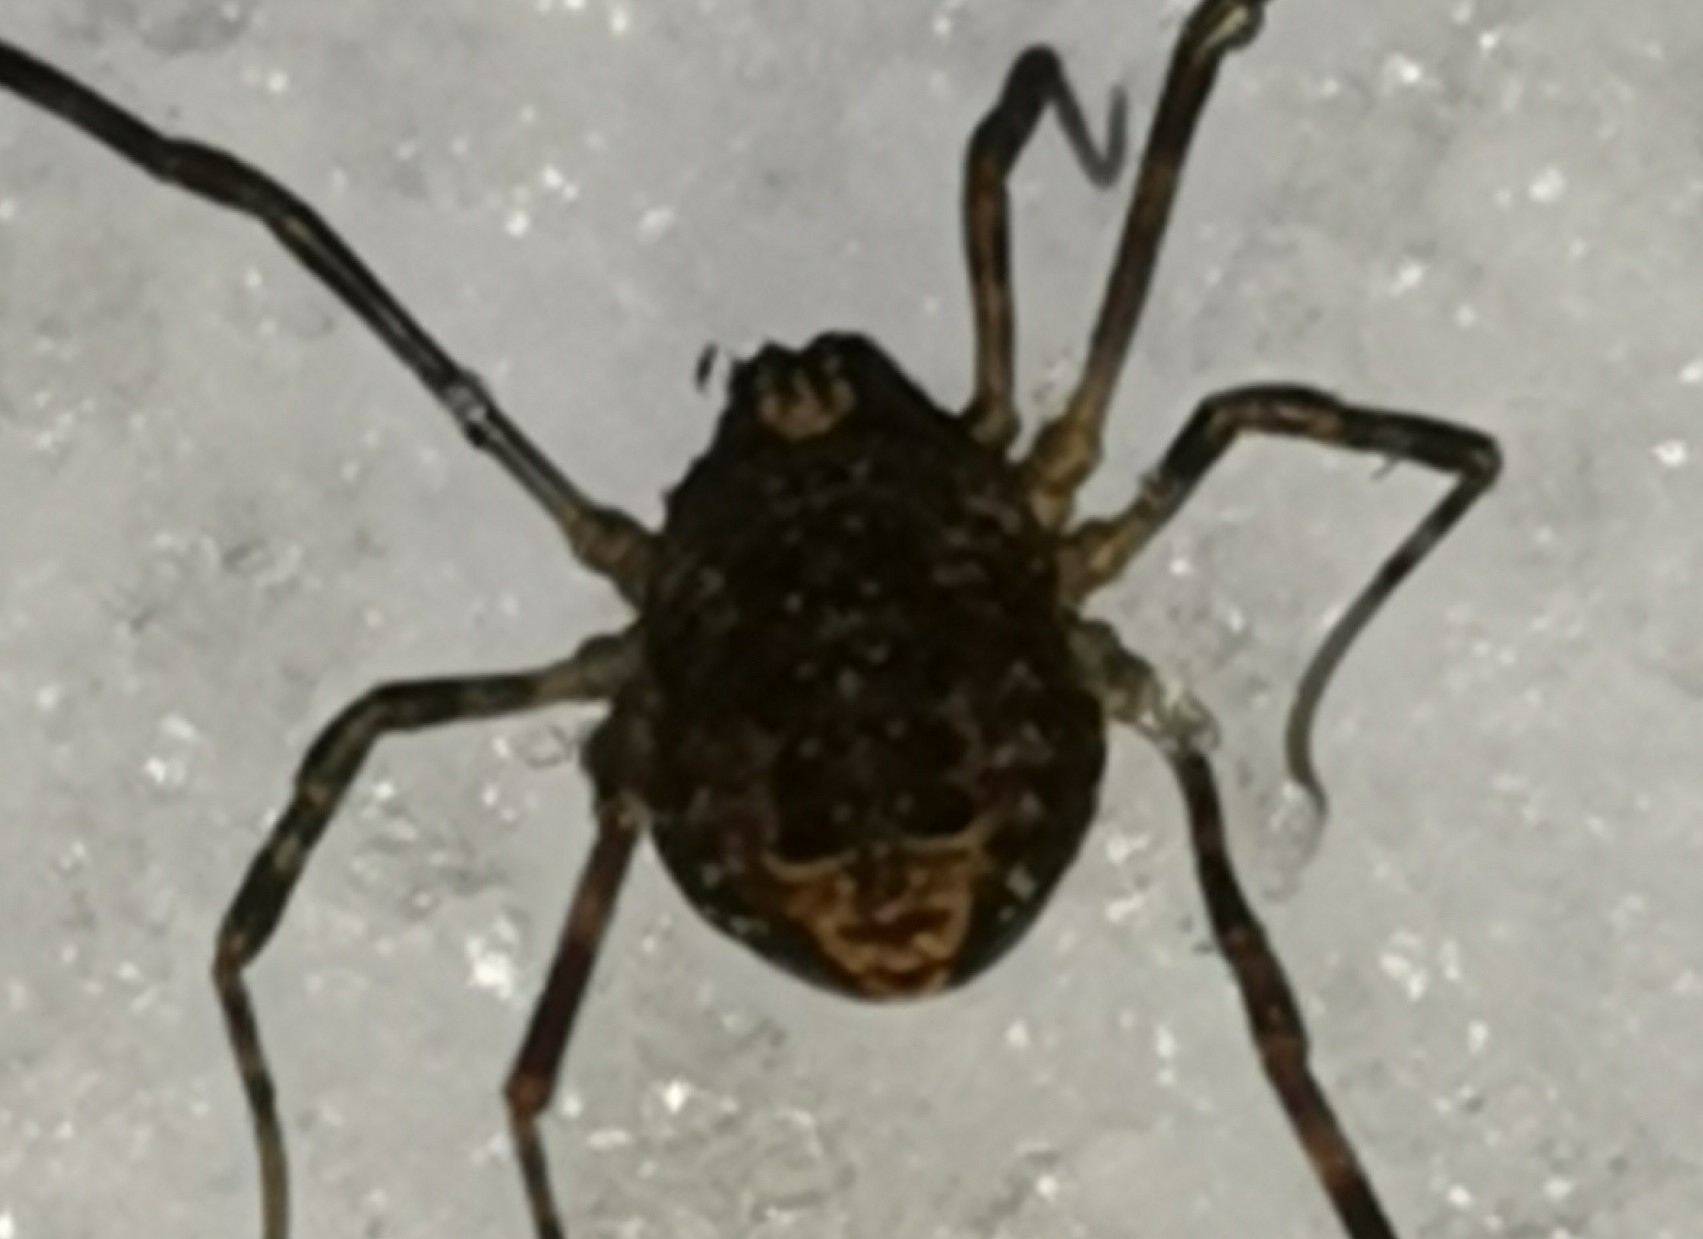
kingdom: Animalia
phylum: Arthropoda
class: Arachnida
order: Opiliones
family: Phalangiidae
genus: Rilaena
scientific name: Rilaena triangularis
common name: Spring harvestman
